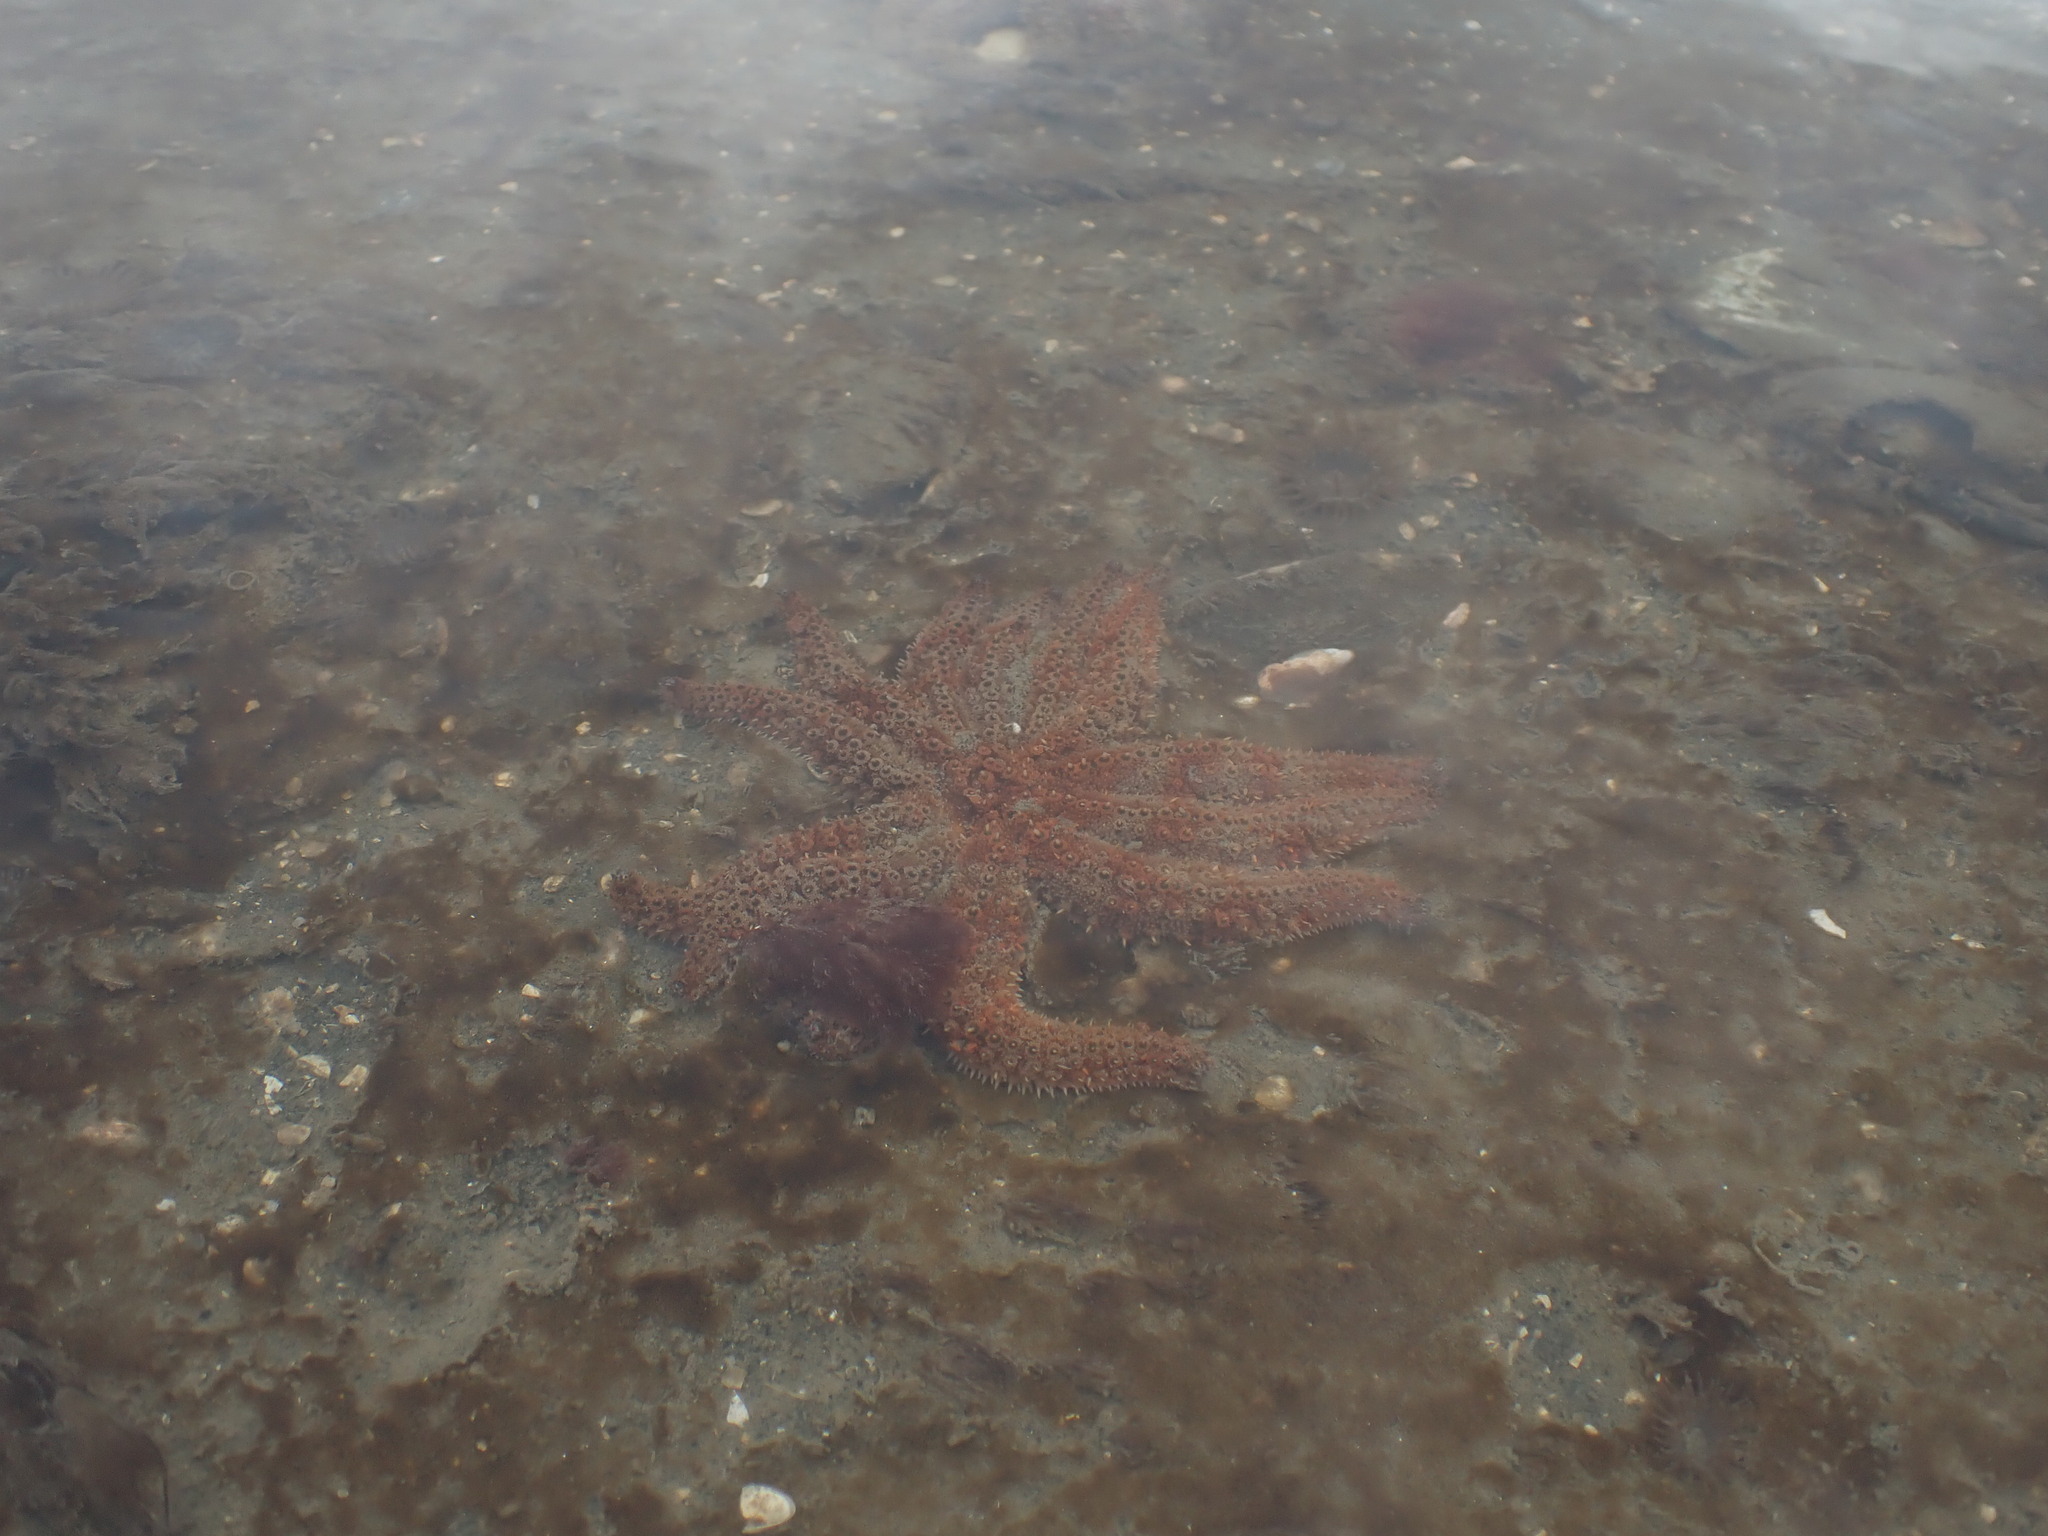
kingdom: Animalia
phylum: Echinodermata
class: Asteroidea
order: Forcipulatida
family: Asteriidae
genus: Coscinasterias
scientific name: Coscinasterias muricata
